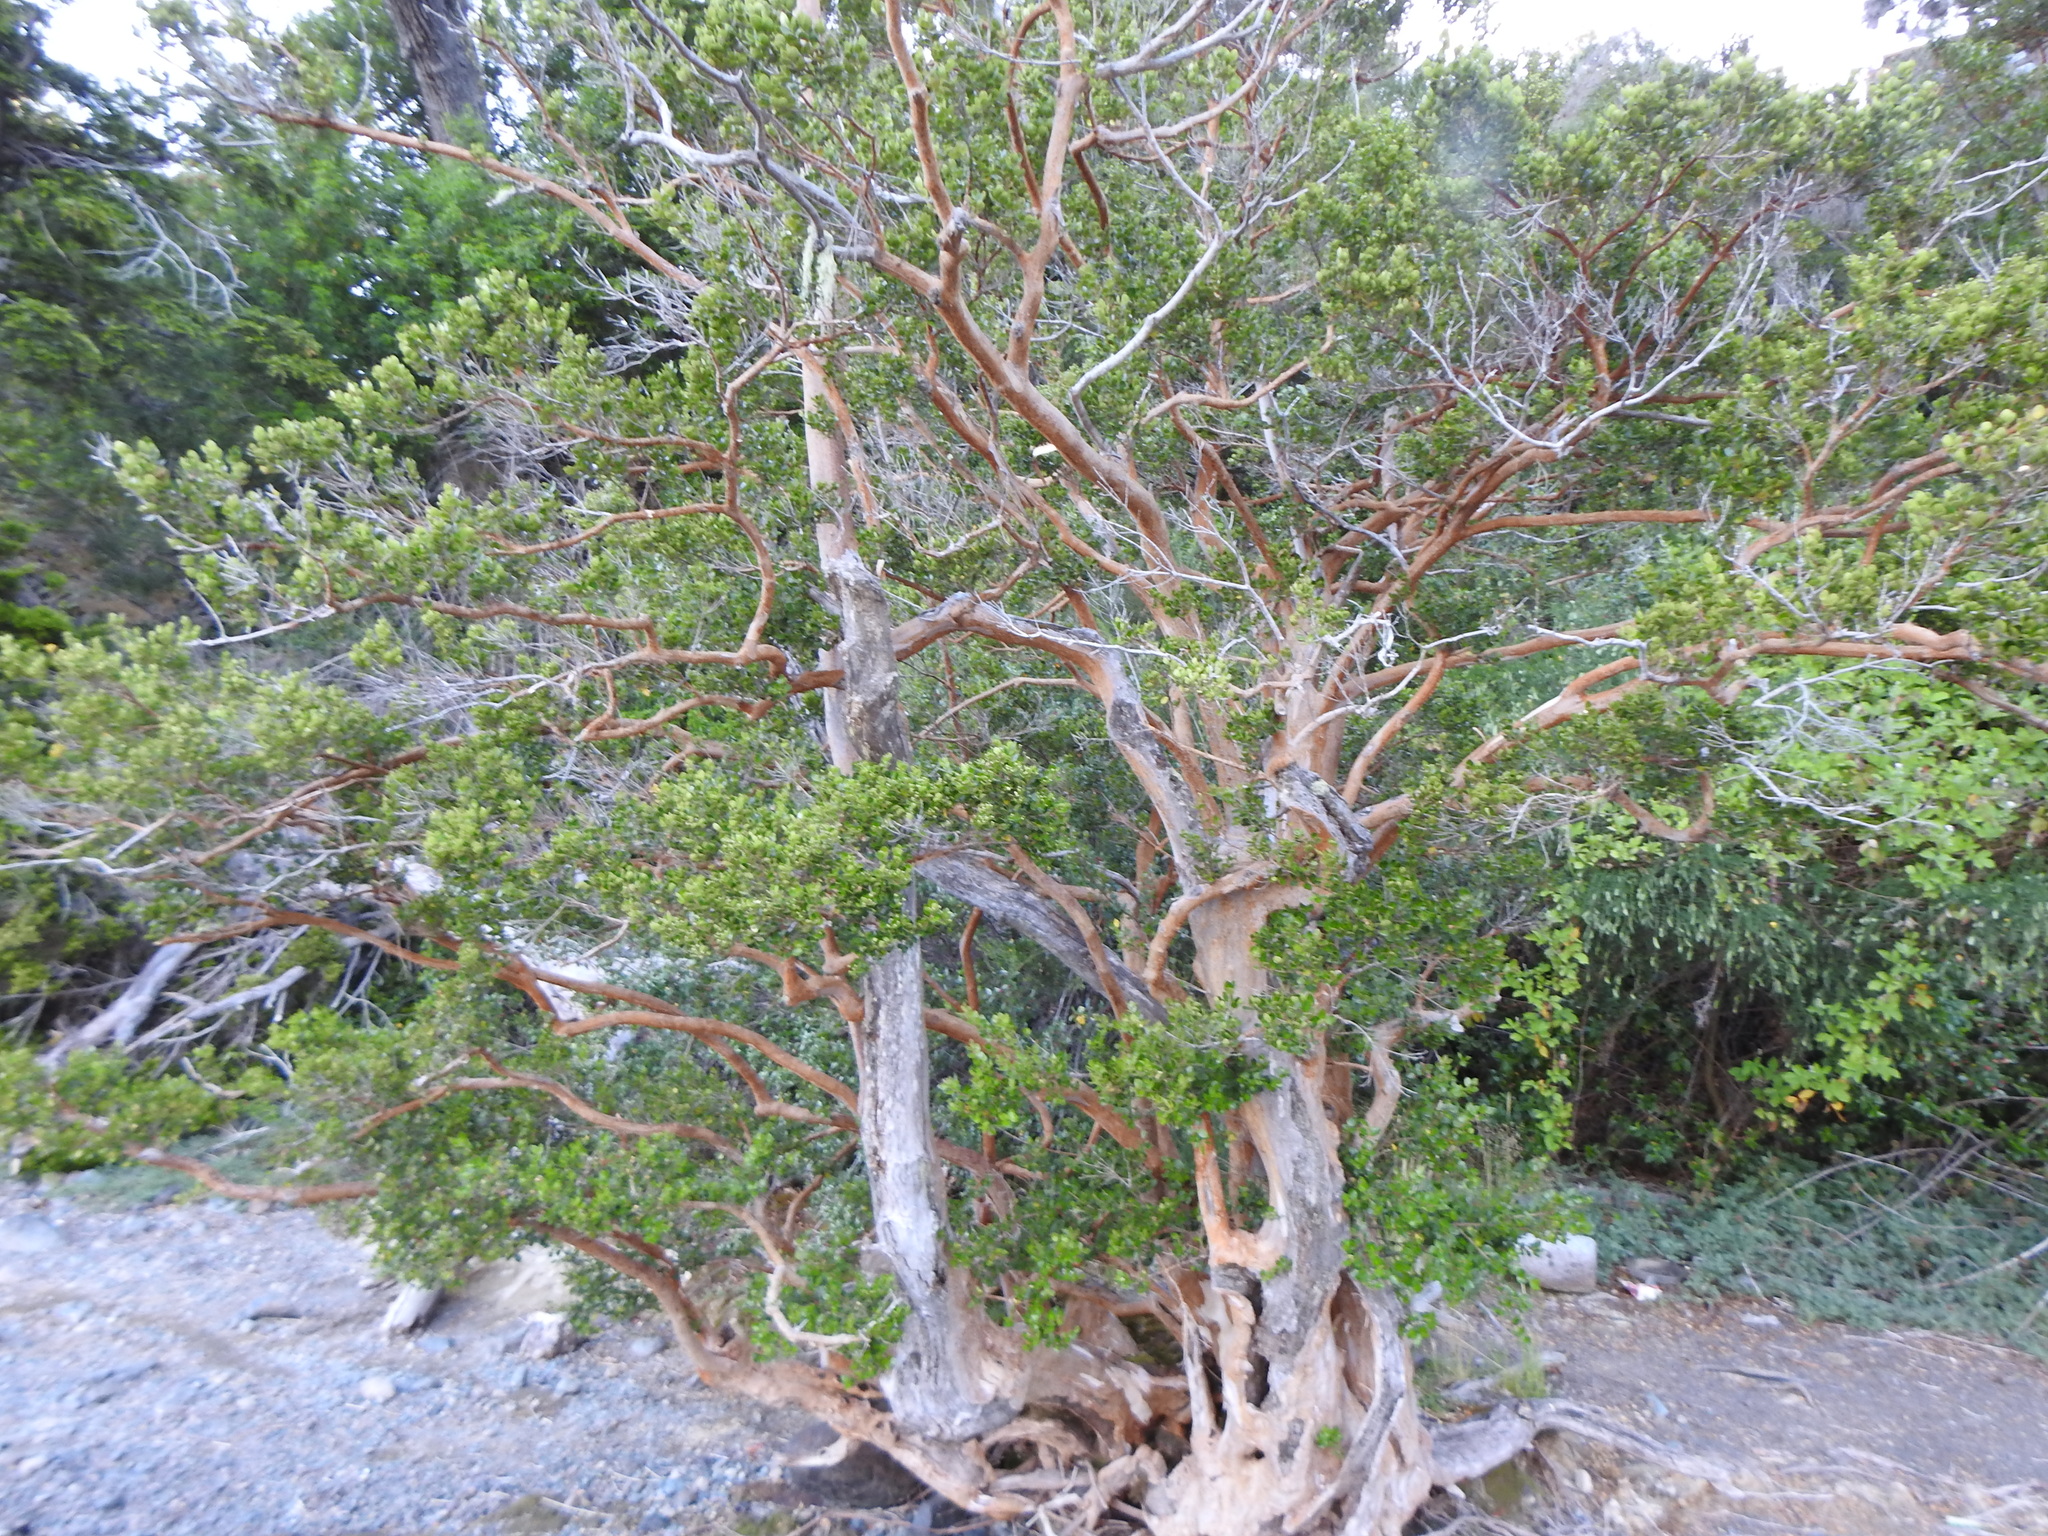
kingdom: Plantae
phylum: Tracheophyta
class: Magnoliopsida
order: Myrtales
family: Myrtaceae
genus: Luma
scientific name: Luma apiculata
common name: Chilean myrtle
